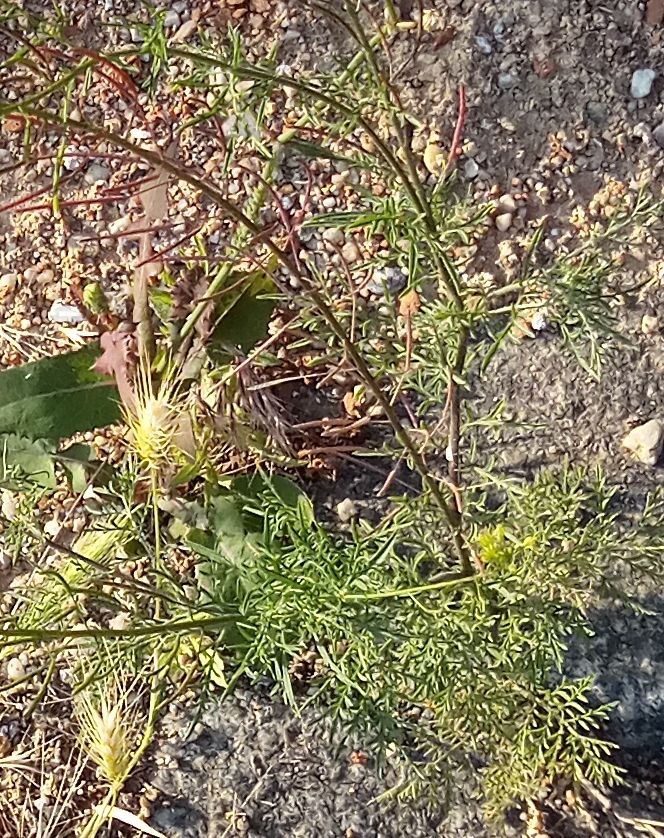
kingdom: Plantae
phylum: Tracheophyta
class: Magnoliopsida
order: Brassicales
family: Brassicaceae
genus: Descurainia
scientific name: Descurainia sophia
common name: Flixweed
